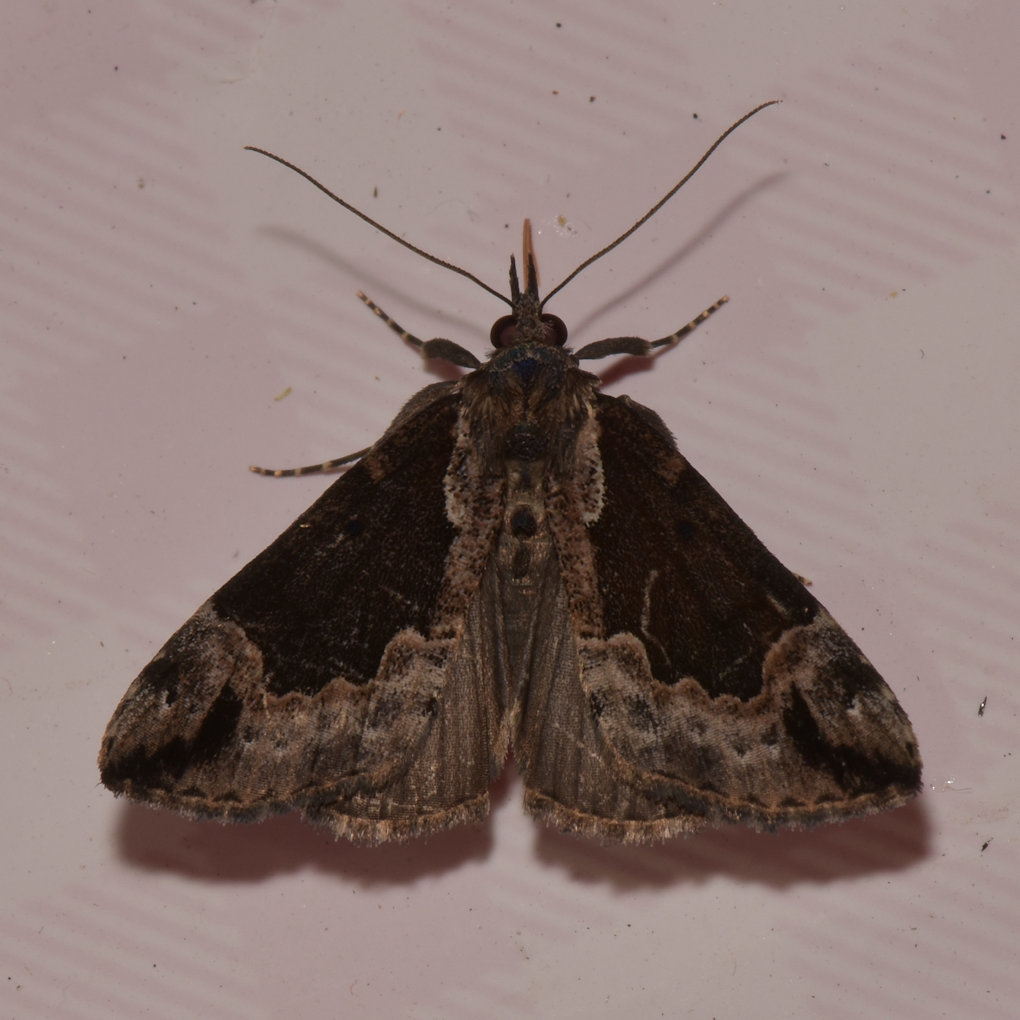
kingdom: Animalia
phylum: Arthropoda
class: Insecta
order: Lepidoptera
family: Erebidae
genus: Hypena
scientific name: Hypena baltimoralis
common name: Baltimore snout
